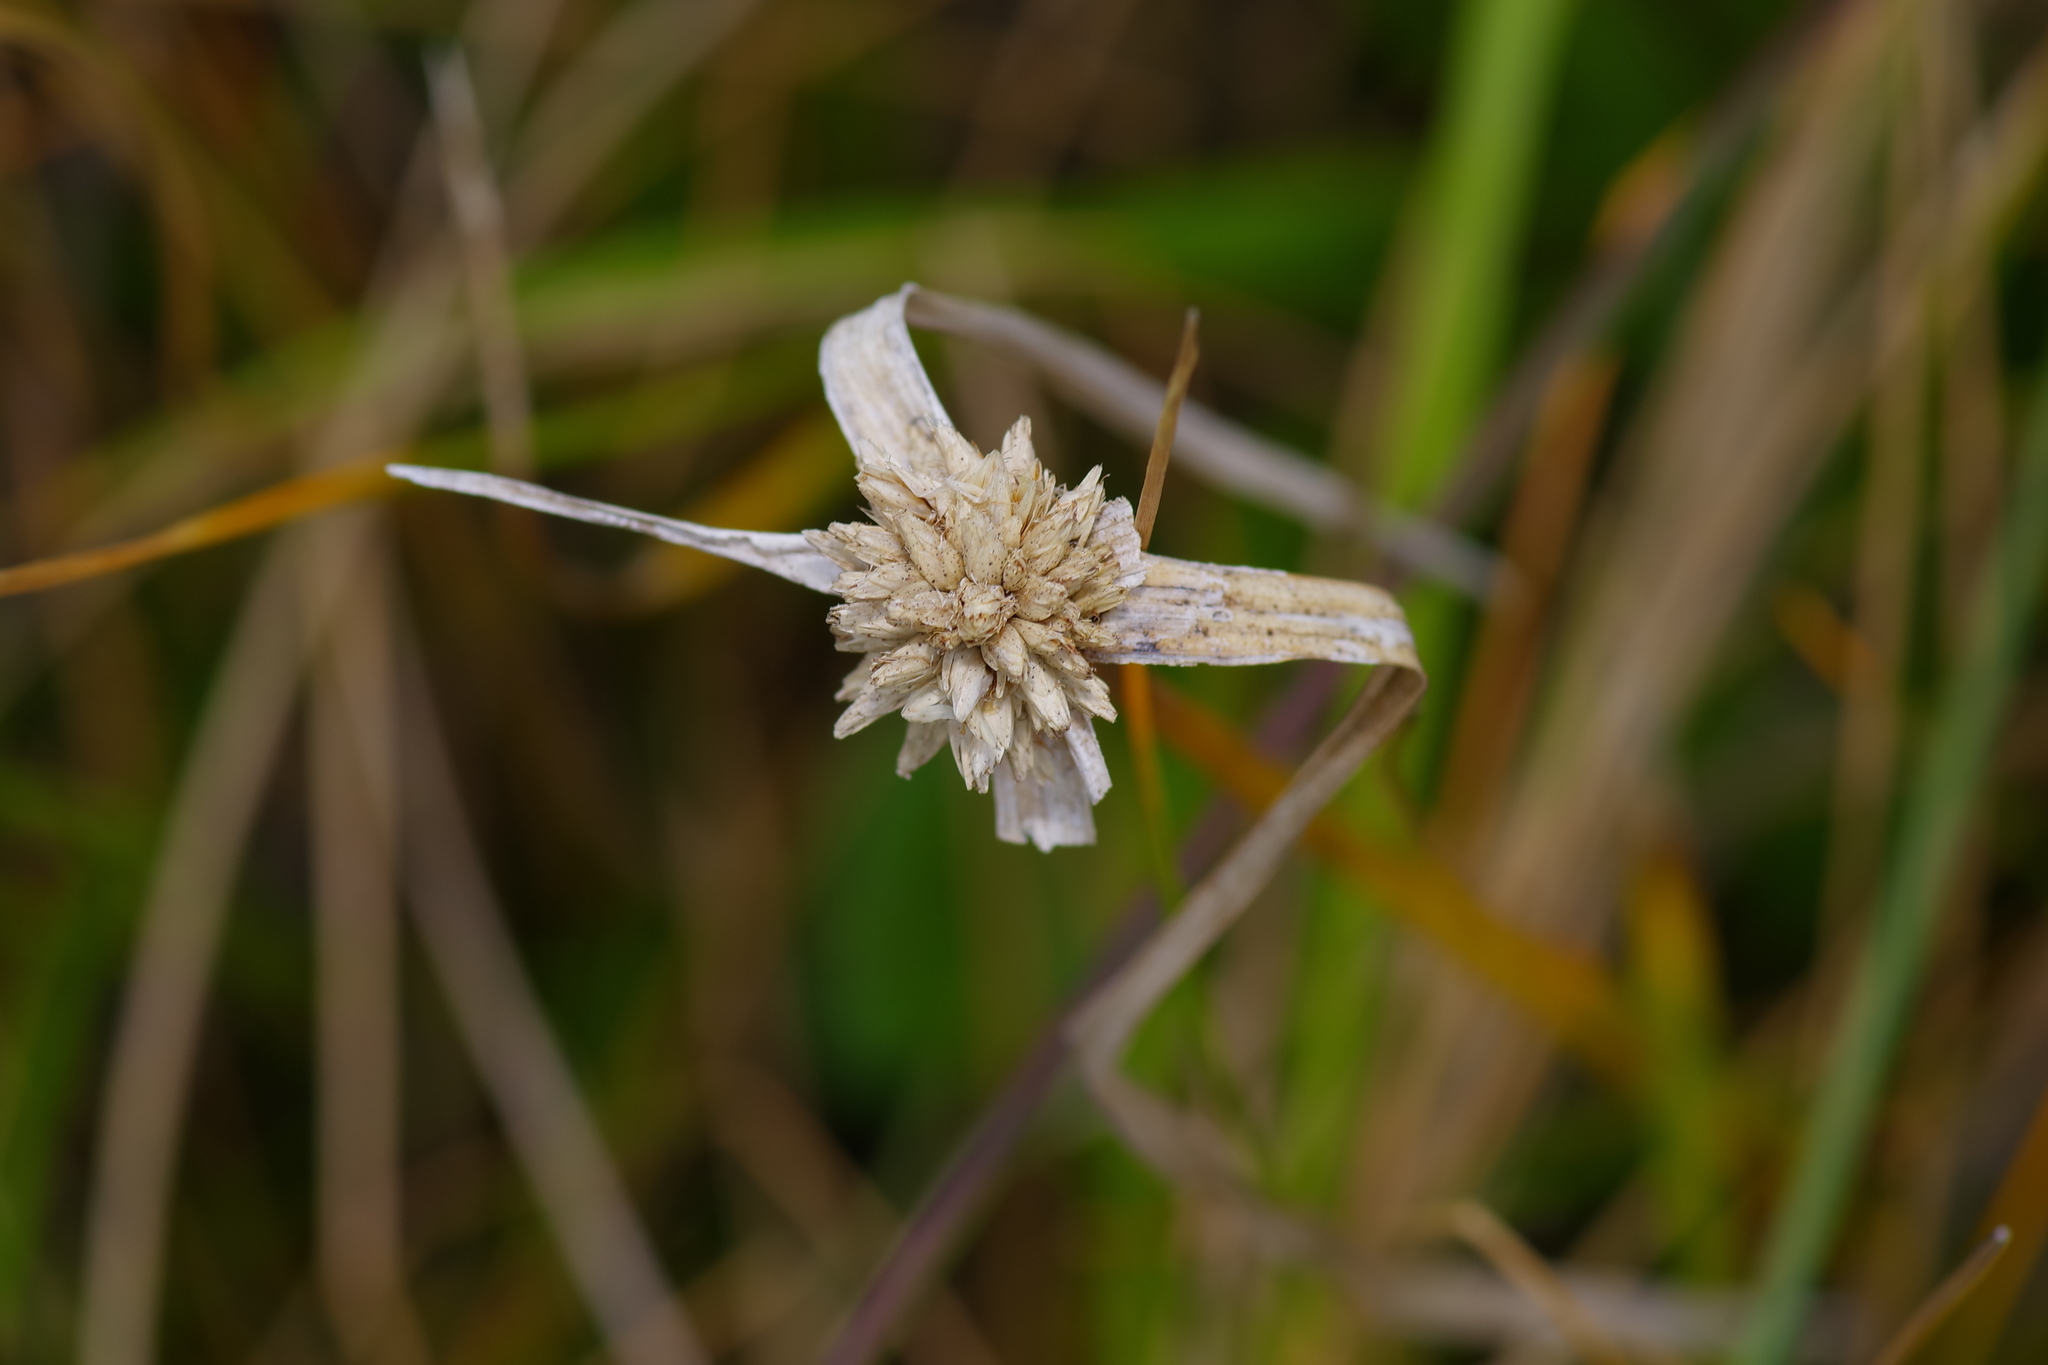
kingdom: Plantae
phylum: Tracheophyta
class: Liliopsida
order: Poales
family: Cyperaceae
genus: Rhynchospora
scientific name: Rhynchospora colorata
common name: Star sedge
